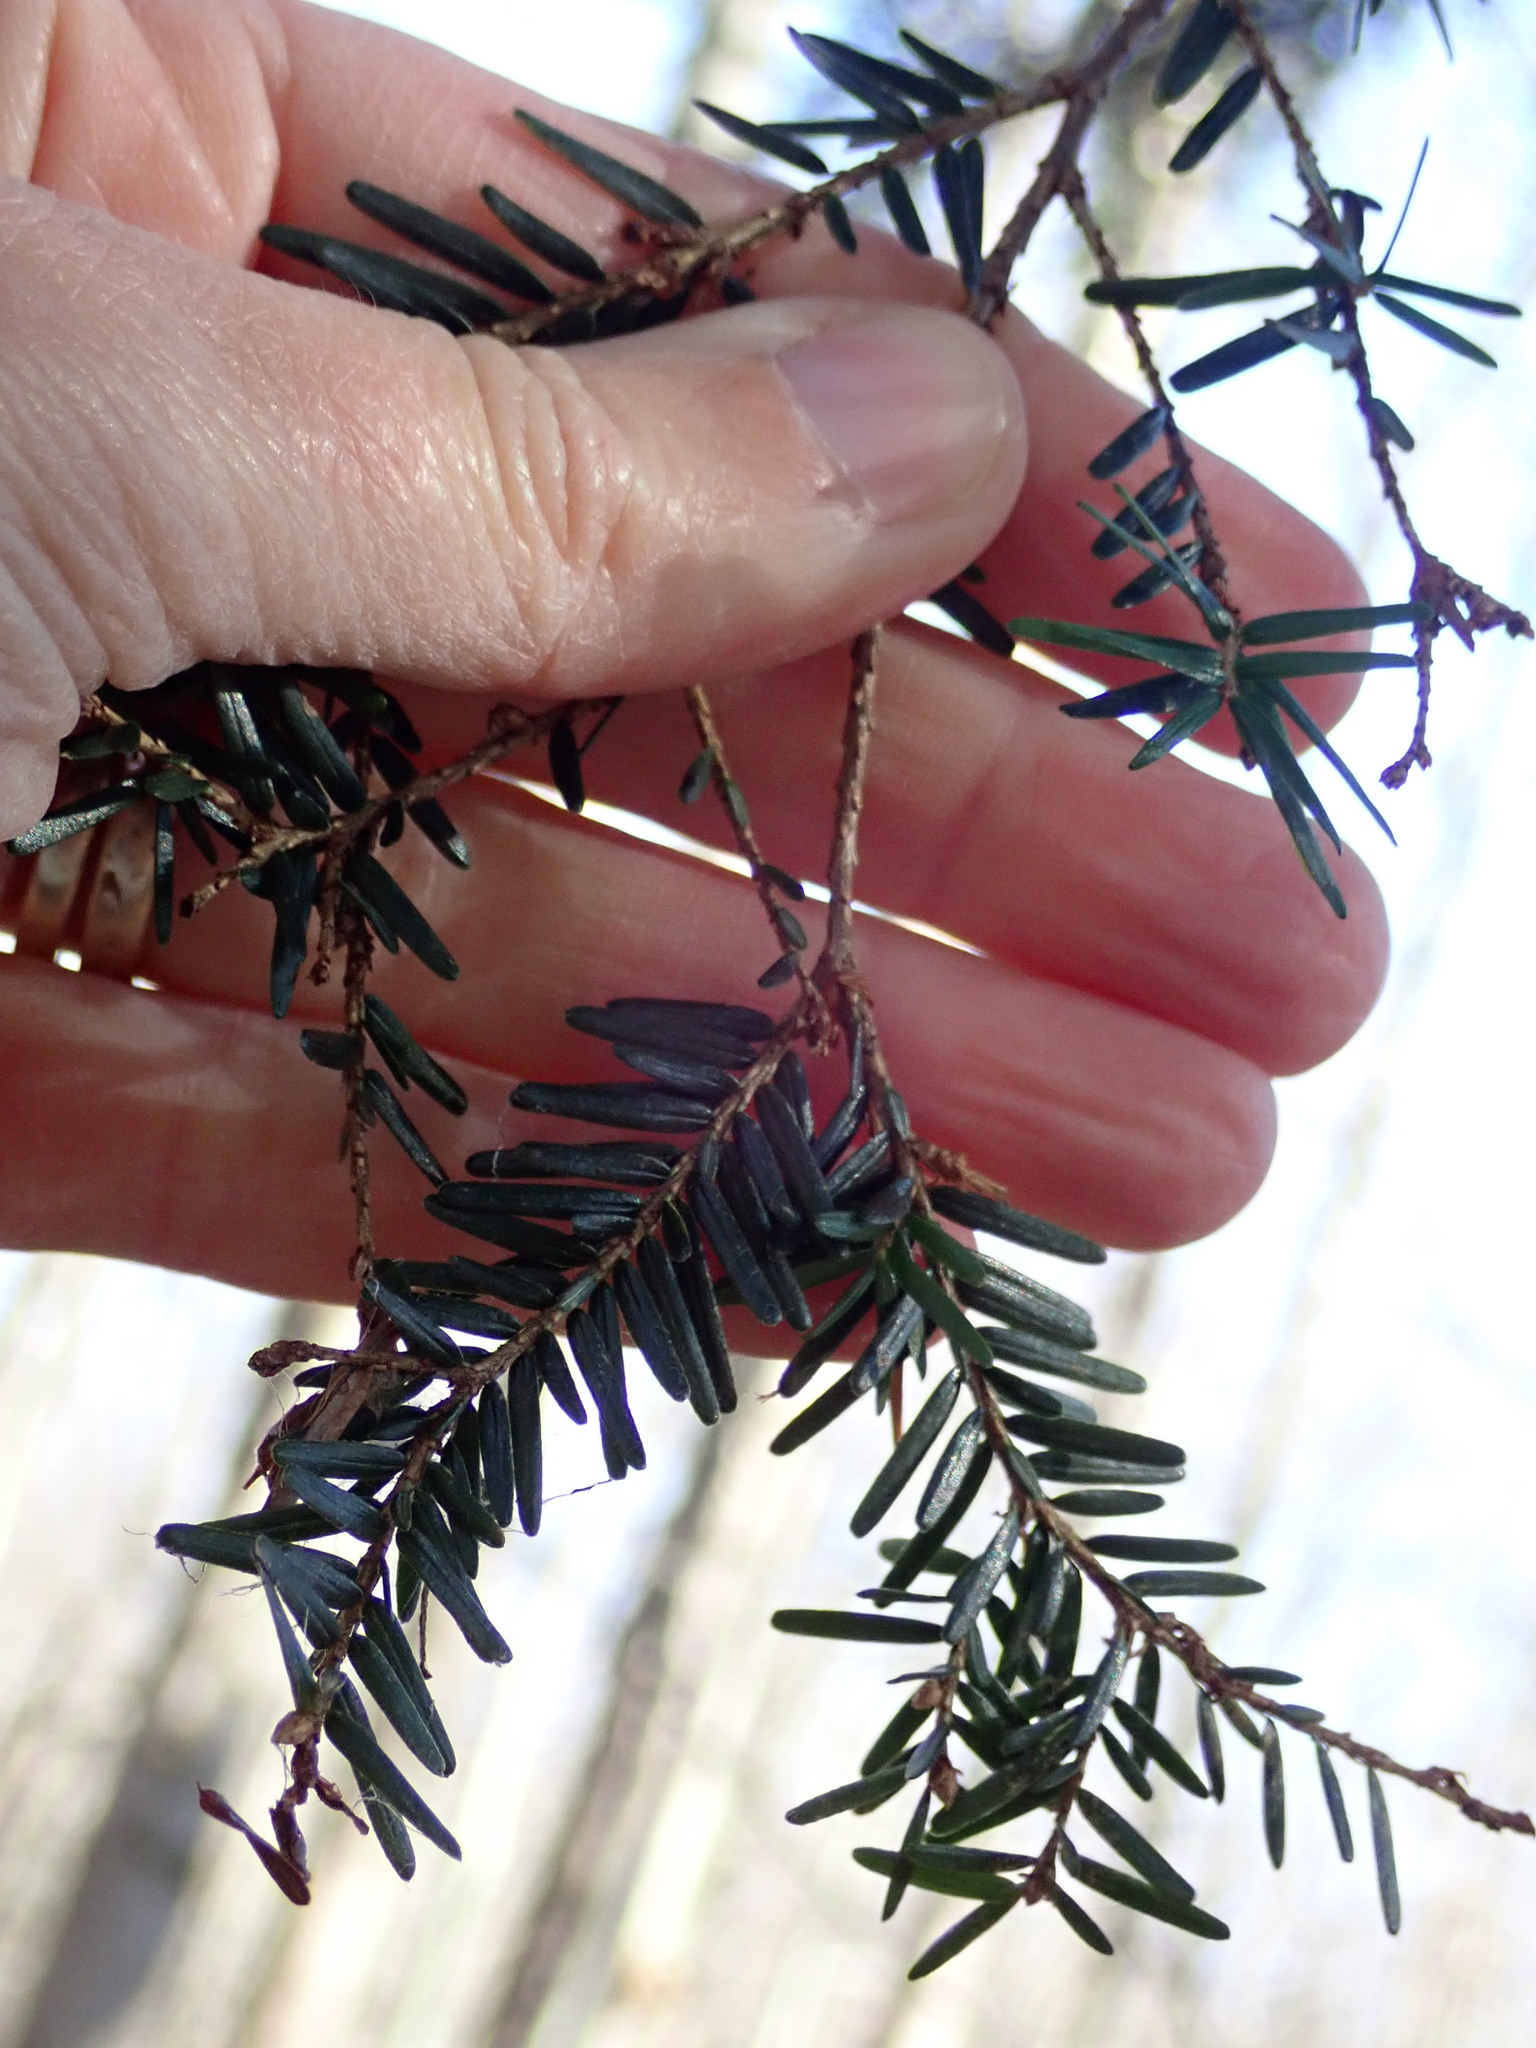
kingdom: Plantae
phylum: Tracheophyta
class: Pinopsida
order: Pinales
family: Pinaceae
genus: Tsuga
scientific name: Tsuga canadensis
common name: Eastern hemlock
